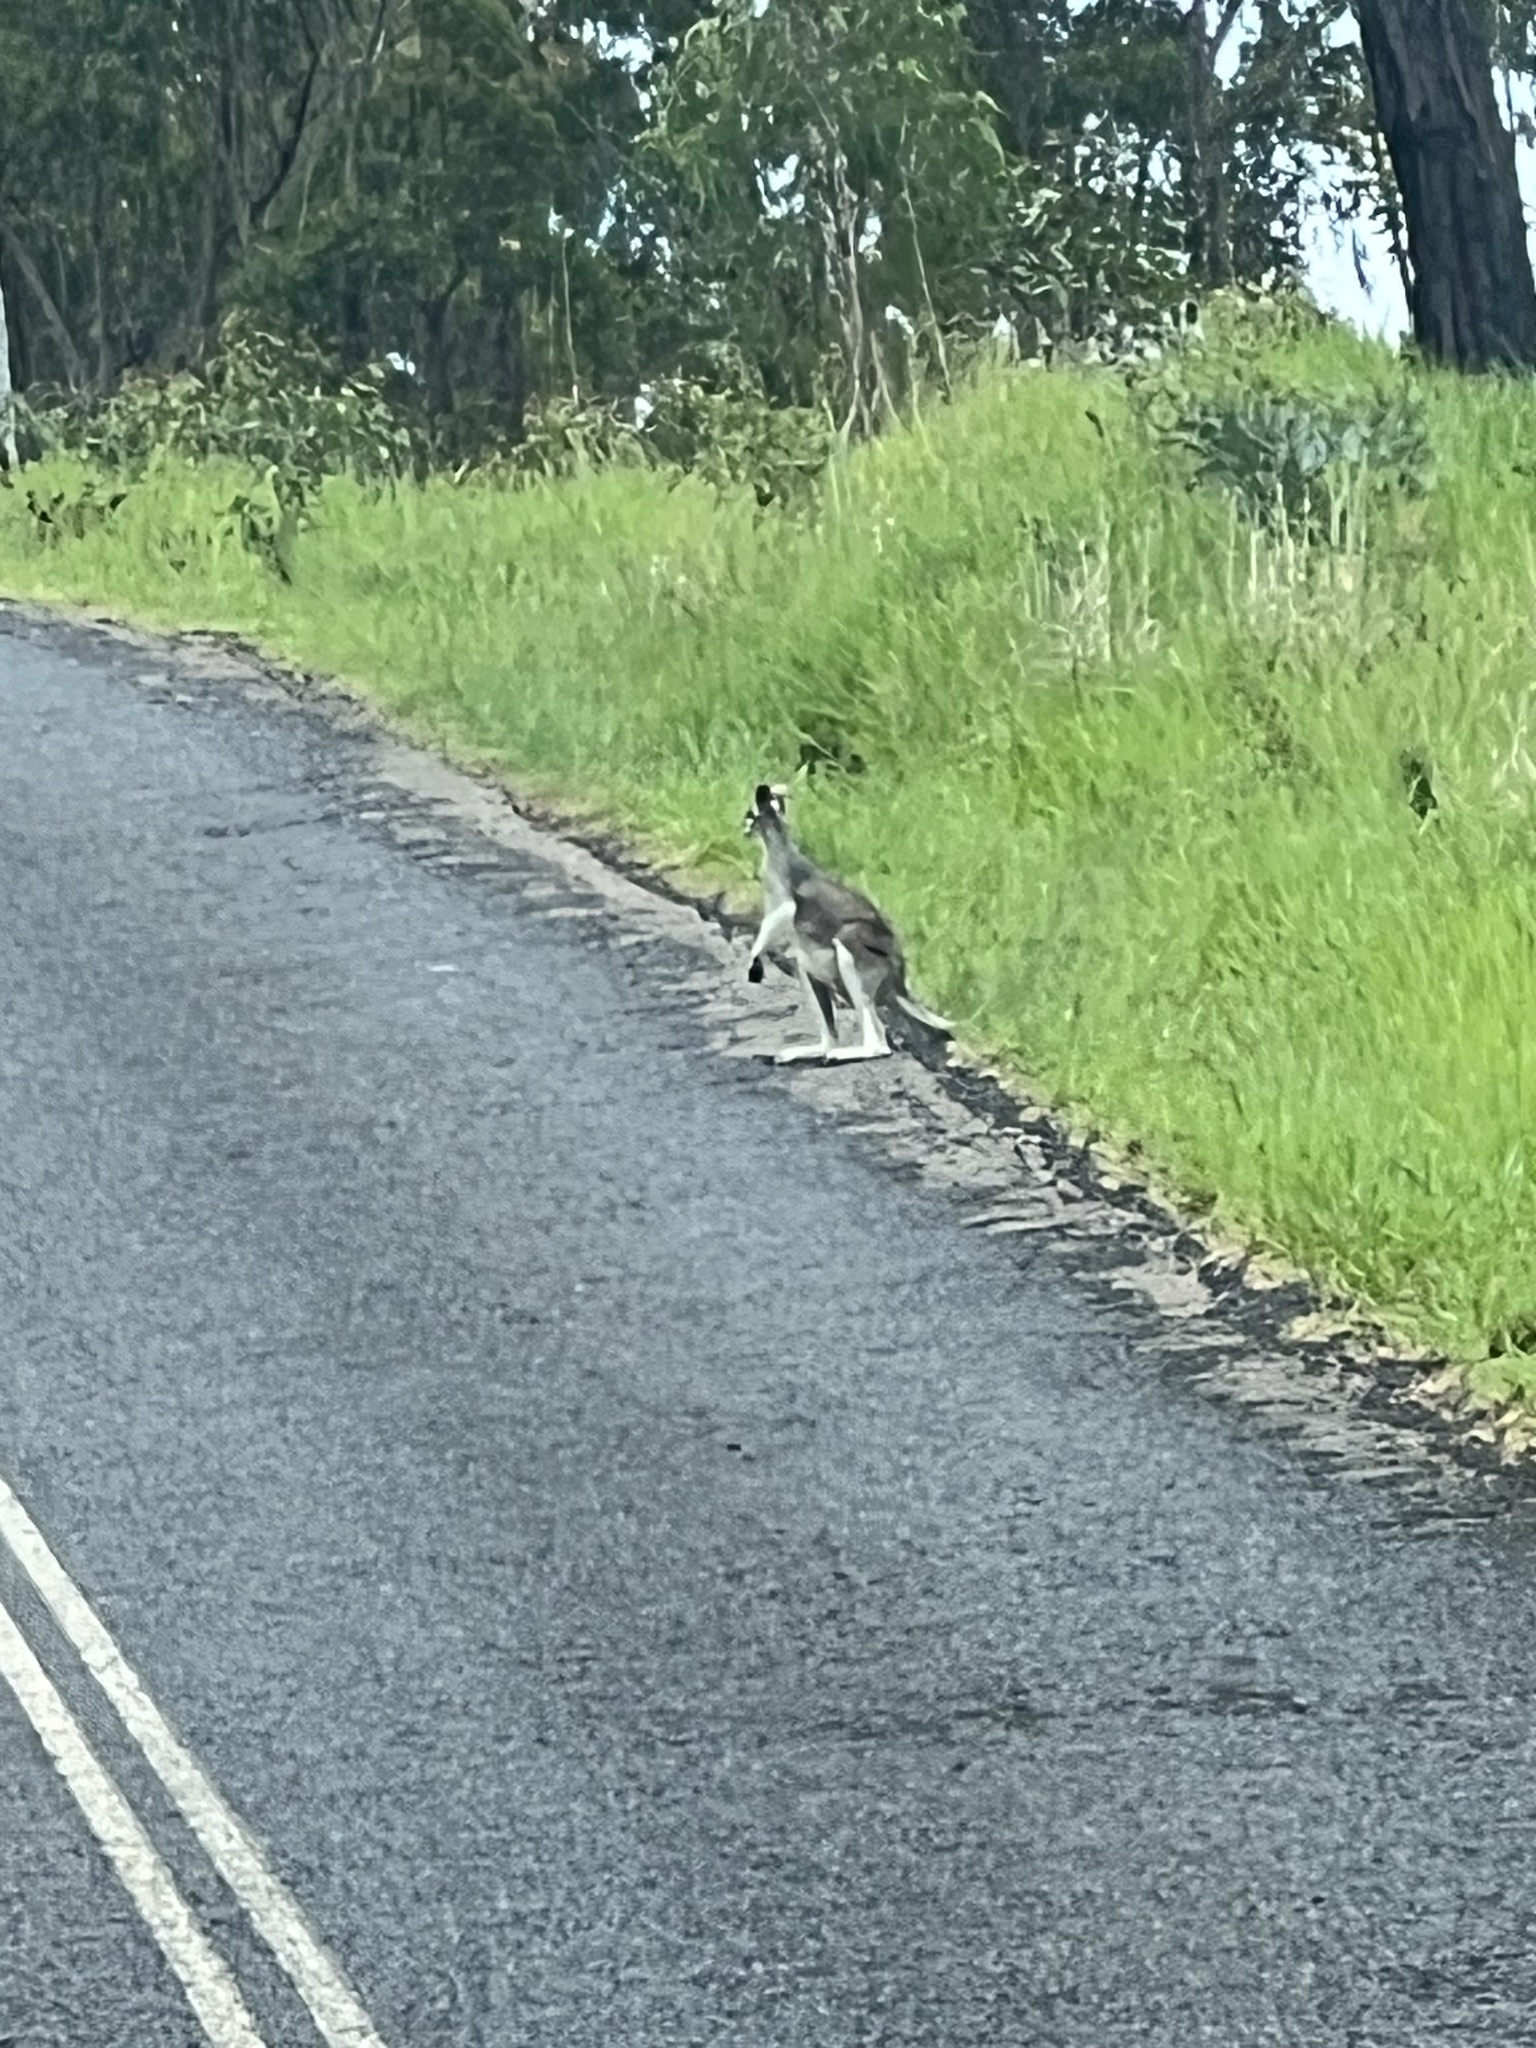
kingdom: Animalia
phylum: Chordata
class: Mammalia
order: Diprotodontia
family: Macropodidae
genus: Notamacropus
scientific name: Notamacropus parryi
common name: Whip-tailed wallaby
